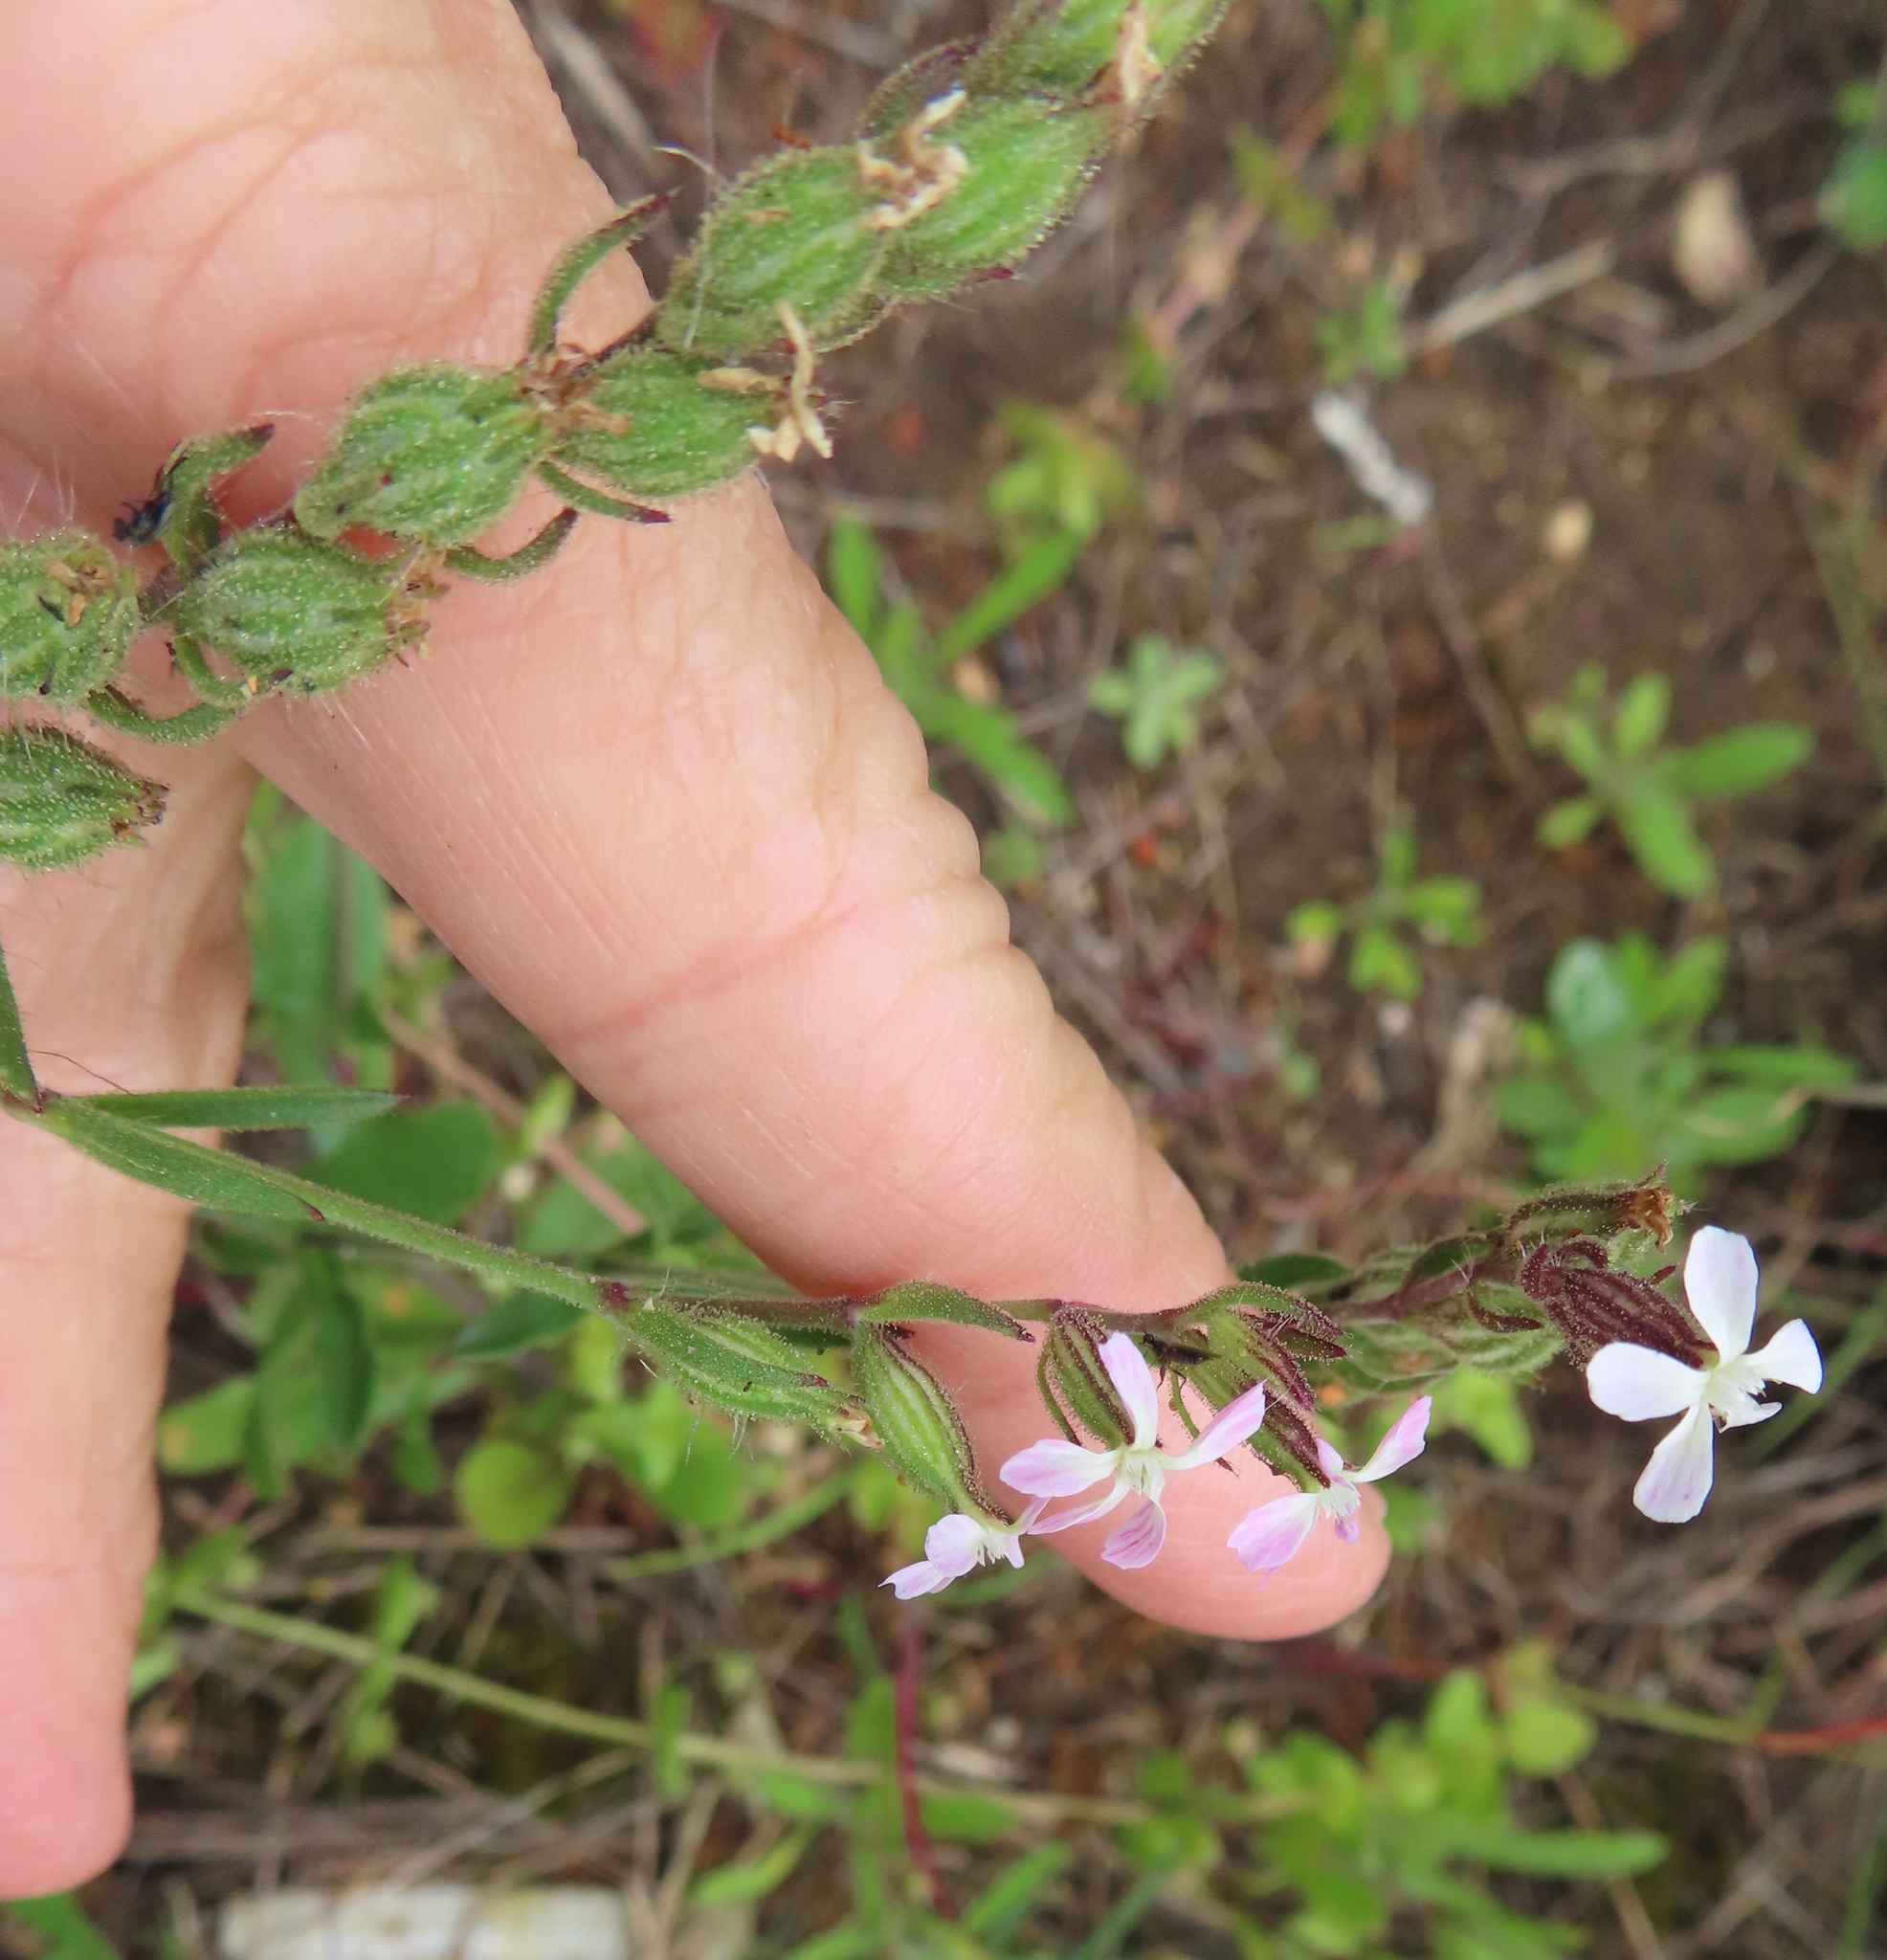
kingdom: Plantae
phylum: Tracheophyta
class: Magnoliopsida
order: Caryophyllales
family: Caryophyllaceae
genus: Silene
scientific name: Silene gallica
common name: Small-flowered catchfly
